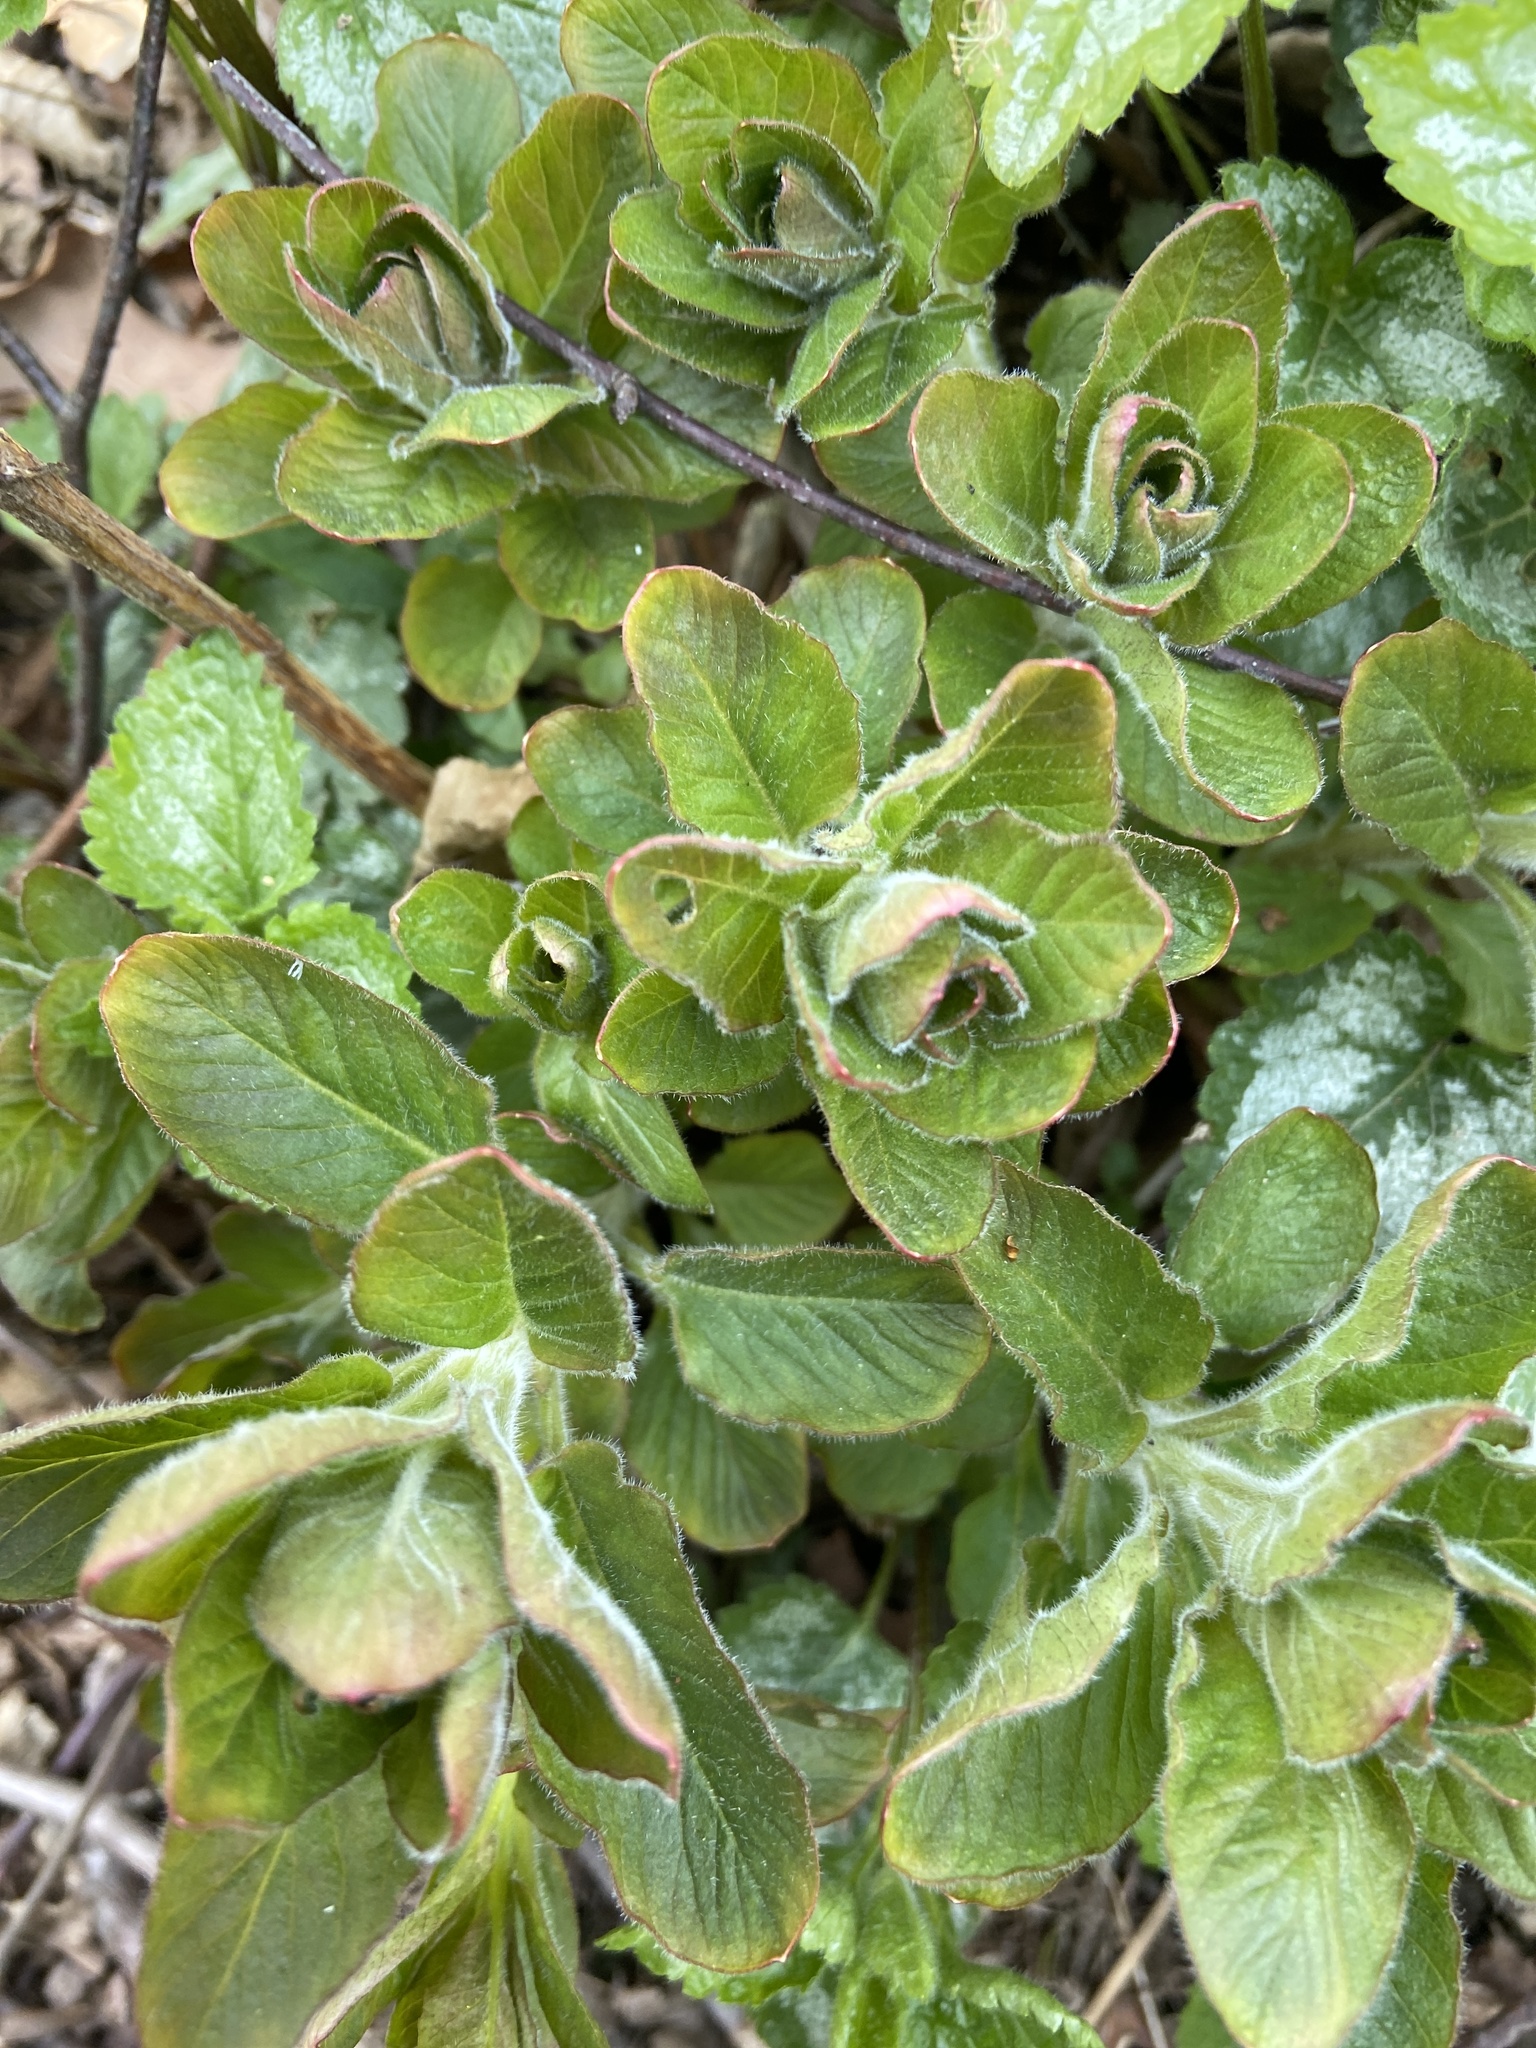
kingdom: Plantae
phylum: Tracheophyta
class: Magnoliopsida
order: Ericales
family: Primulaceae
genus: Lysimachia
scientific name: Lysimachia punctata
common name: Dotted loosestrife
